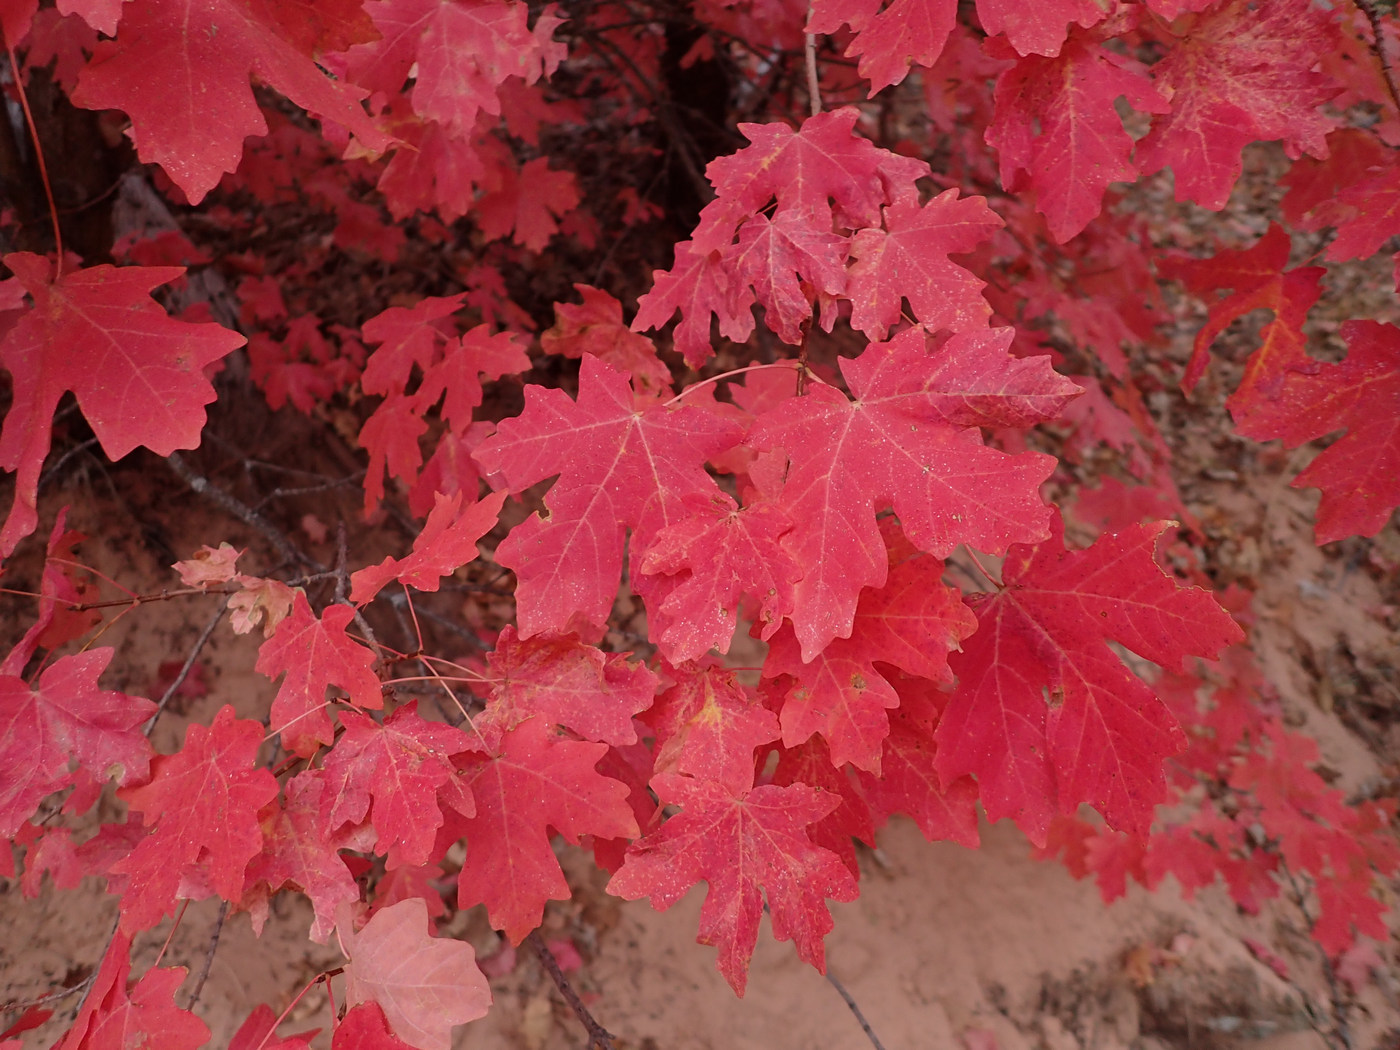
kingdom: Plantae
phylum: Tracheophyta
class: Magnoliopsida
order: Sapindales
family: Sapindaceae
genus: Acer
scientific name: Acer grandidentatum
